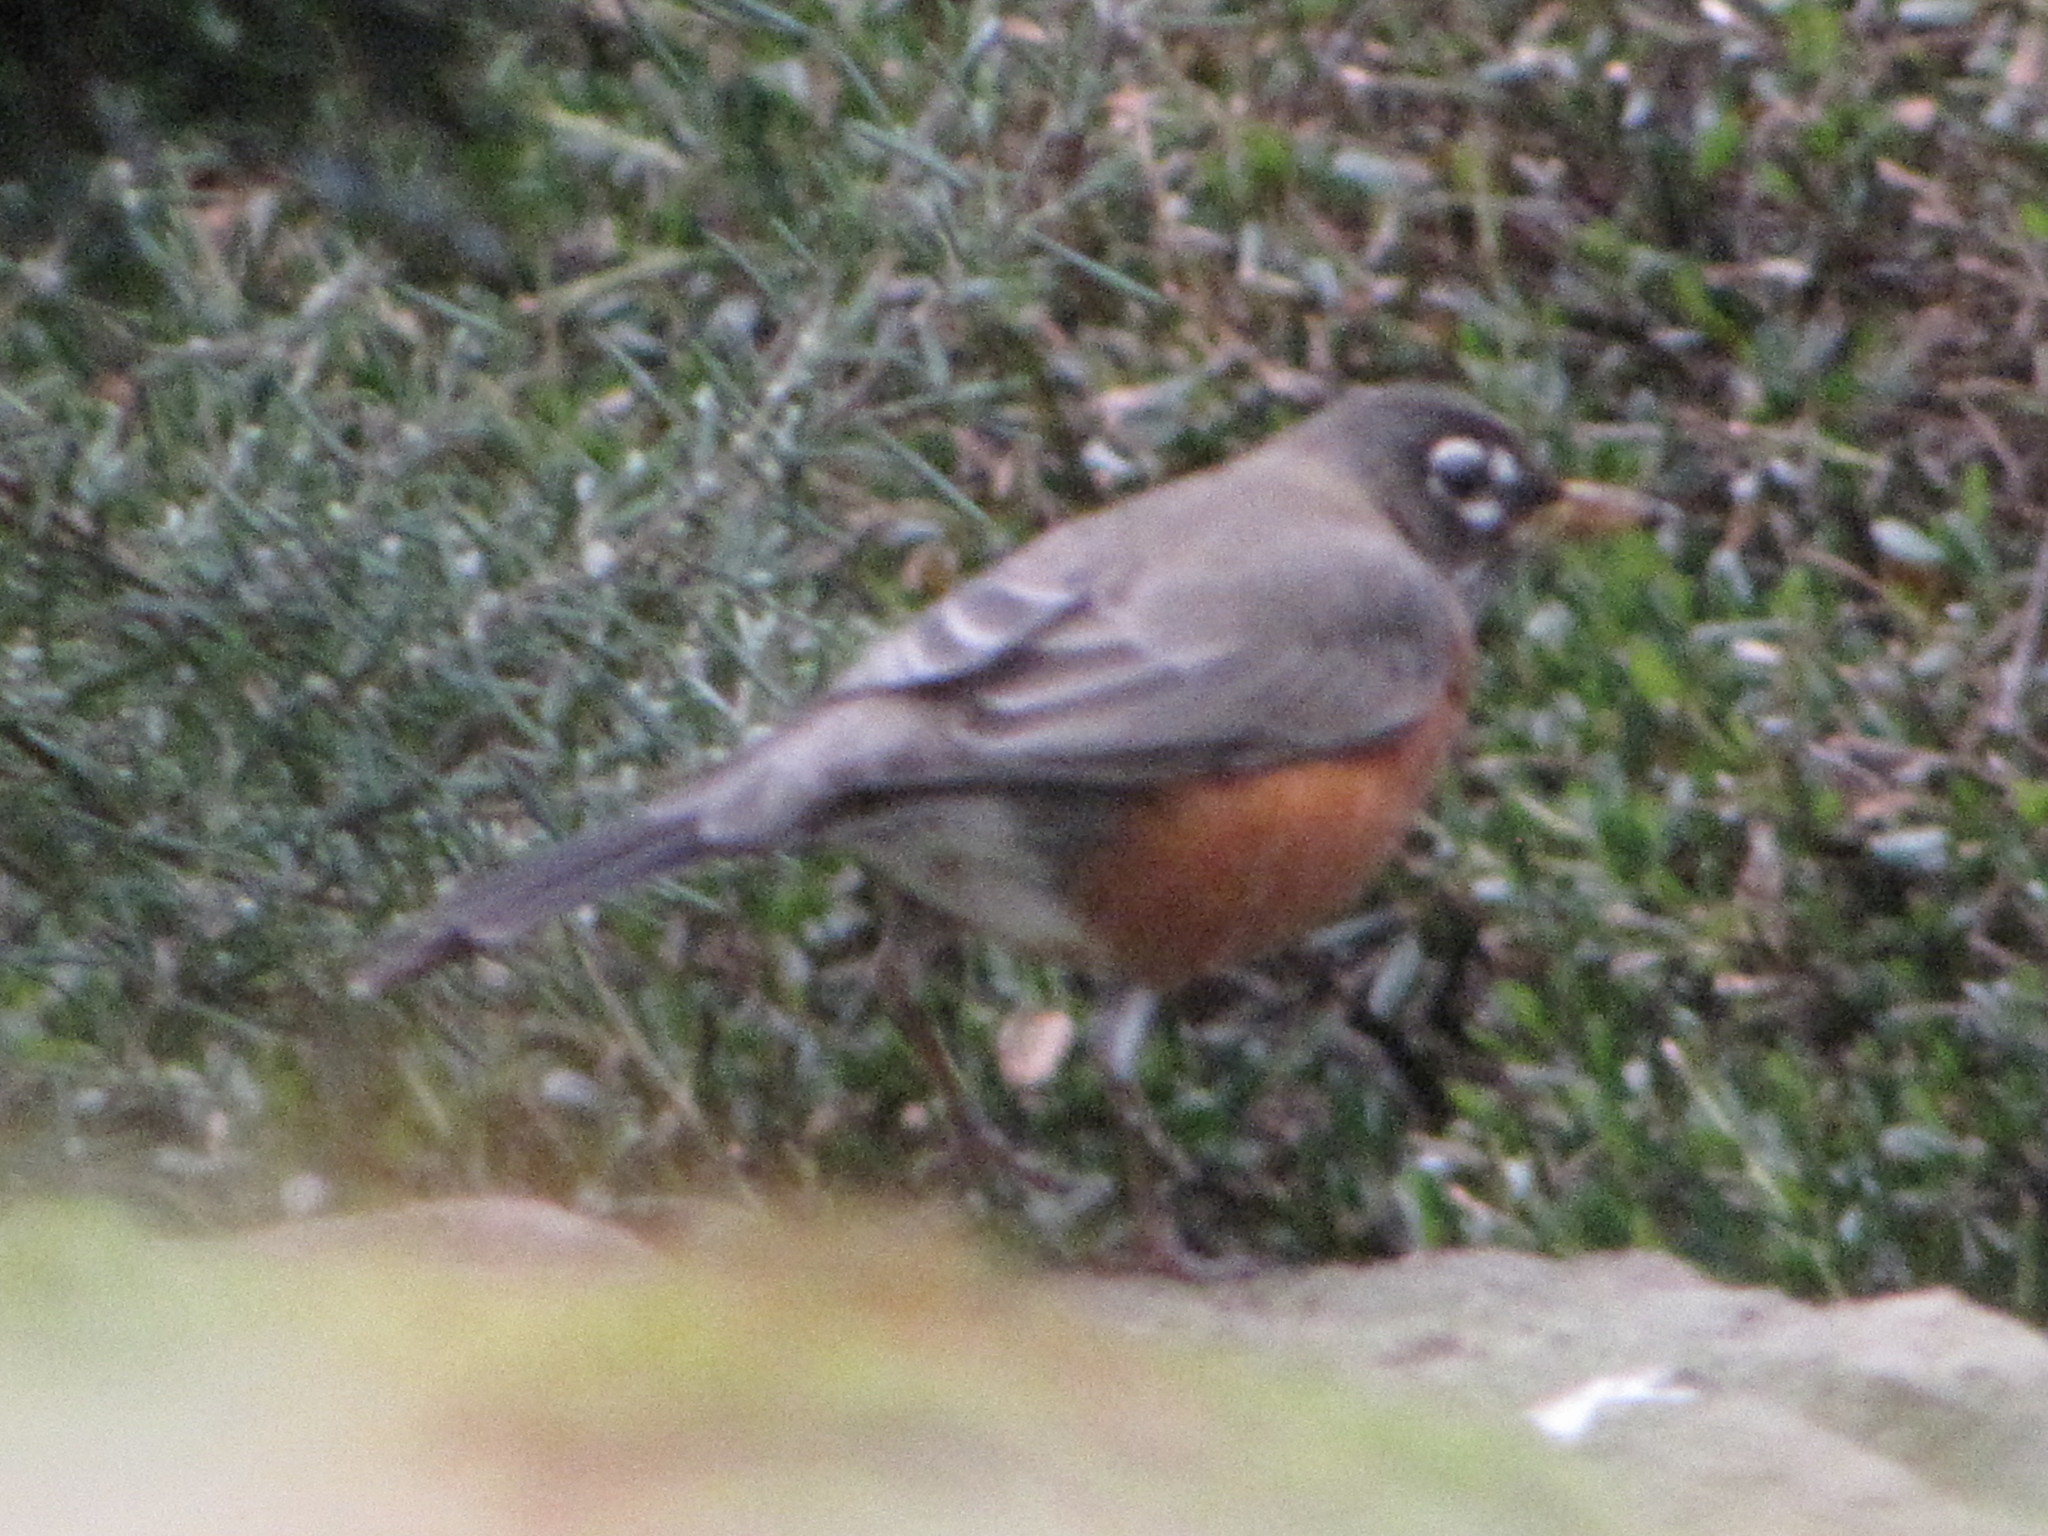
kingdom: Animalia
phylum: Chordata
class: Aves
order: Passeriformes
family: Turdidae
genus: Turdus
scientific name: Turdus migratorius
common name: American robin
